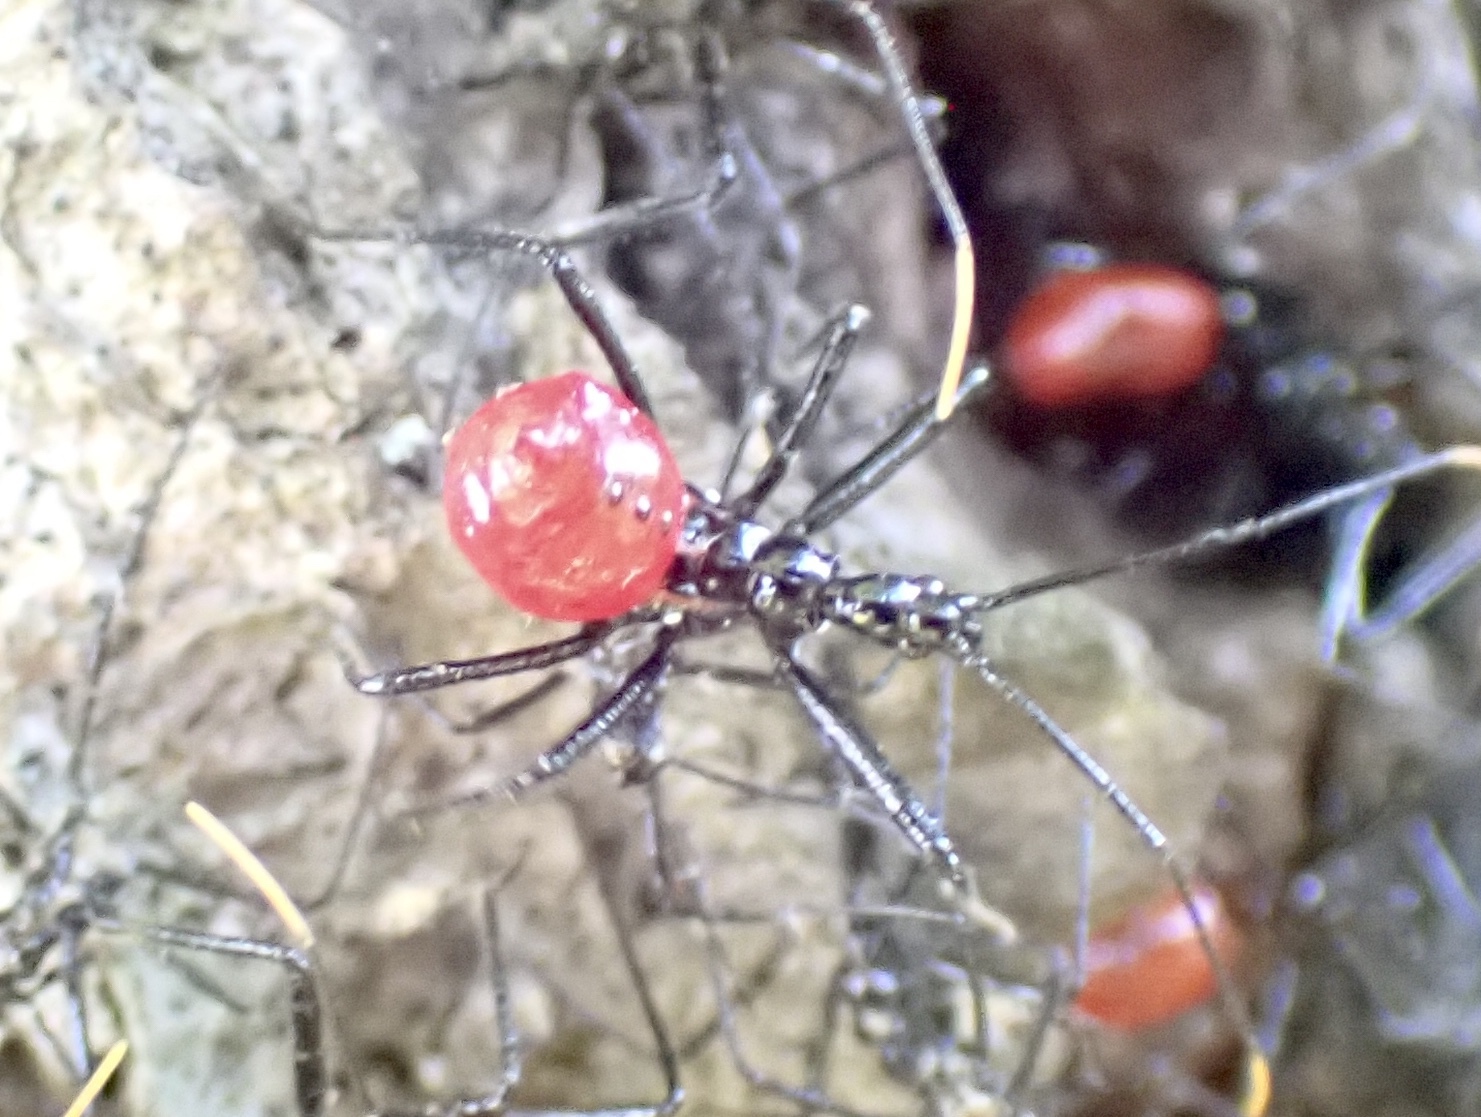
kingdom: Animalia
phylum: Arthropoda
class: Insecta
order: Hemiptera
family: Reduviidae
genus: Arilus
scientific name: Arilus cristatus
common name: North american wheel bug
